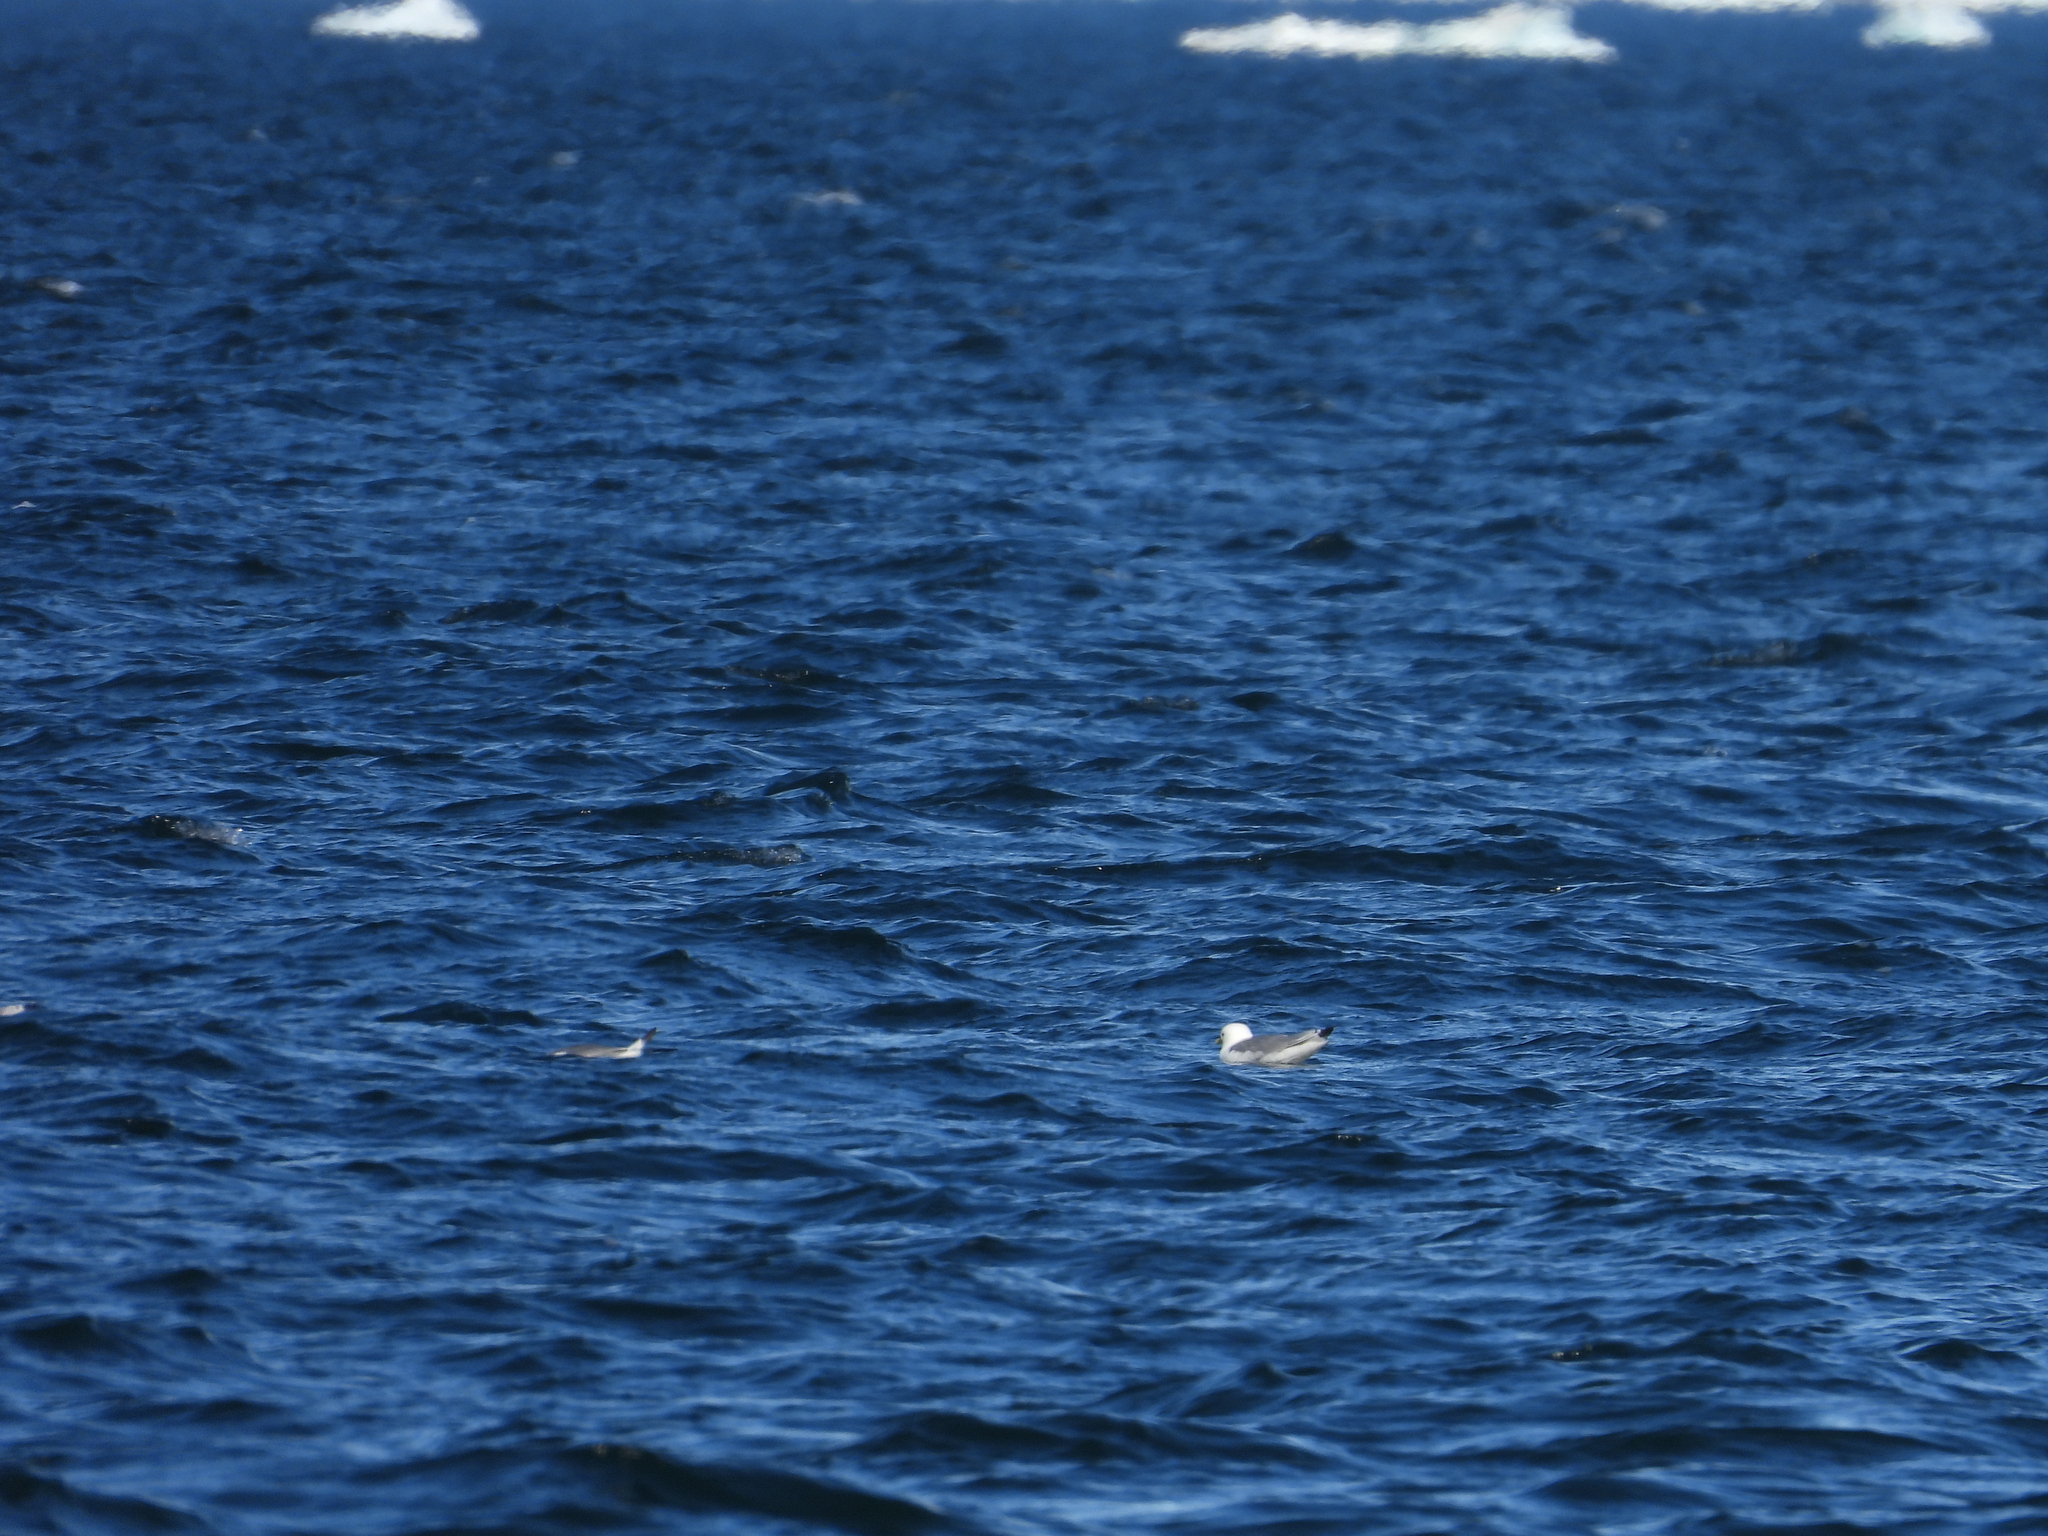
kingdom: Animalia
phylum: Chordata
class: Aves
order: Charadriiformes
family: Laridae
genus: Rissa
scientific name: Rissa tridactyla
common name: Black-legged kittiwake
